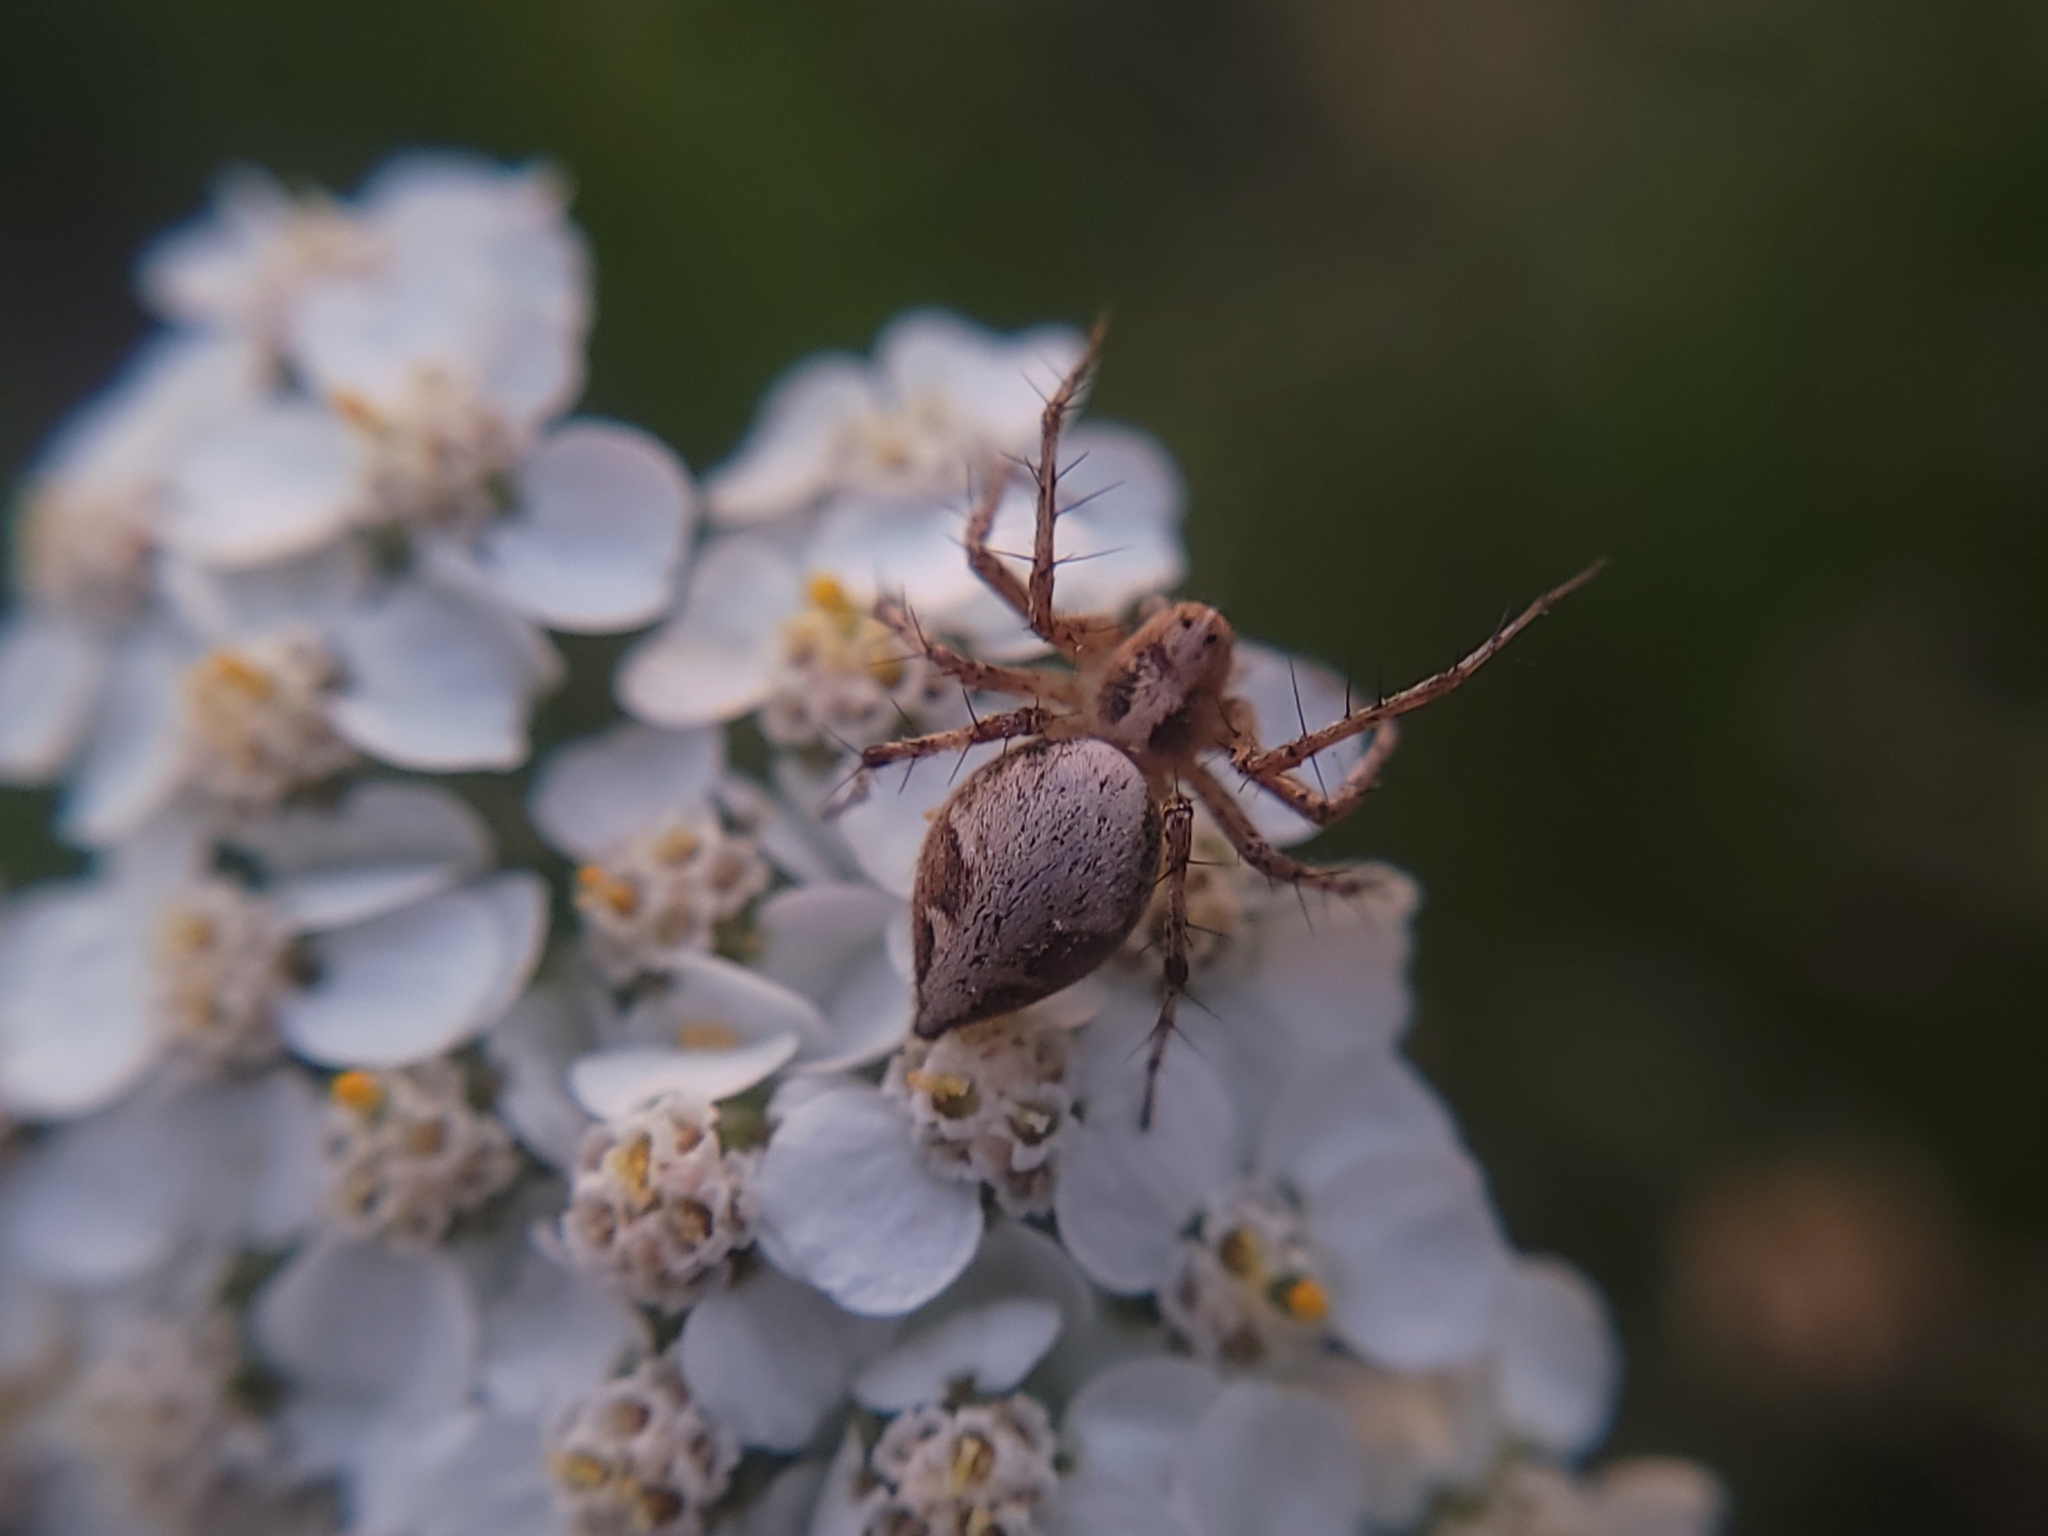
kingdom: Animalia
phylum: Arthropoda
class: Arachnida
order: Araneae
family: Oxyopidae
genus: Oxyopes
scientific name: Oxyopes scalaris
